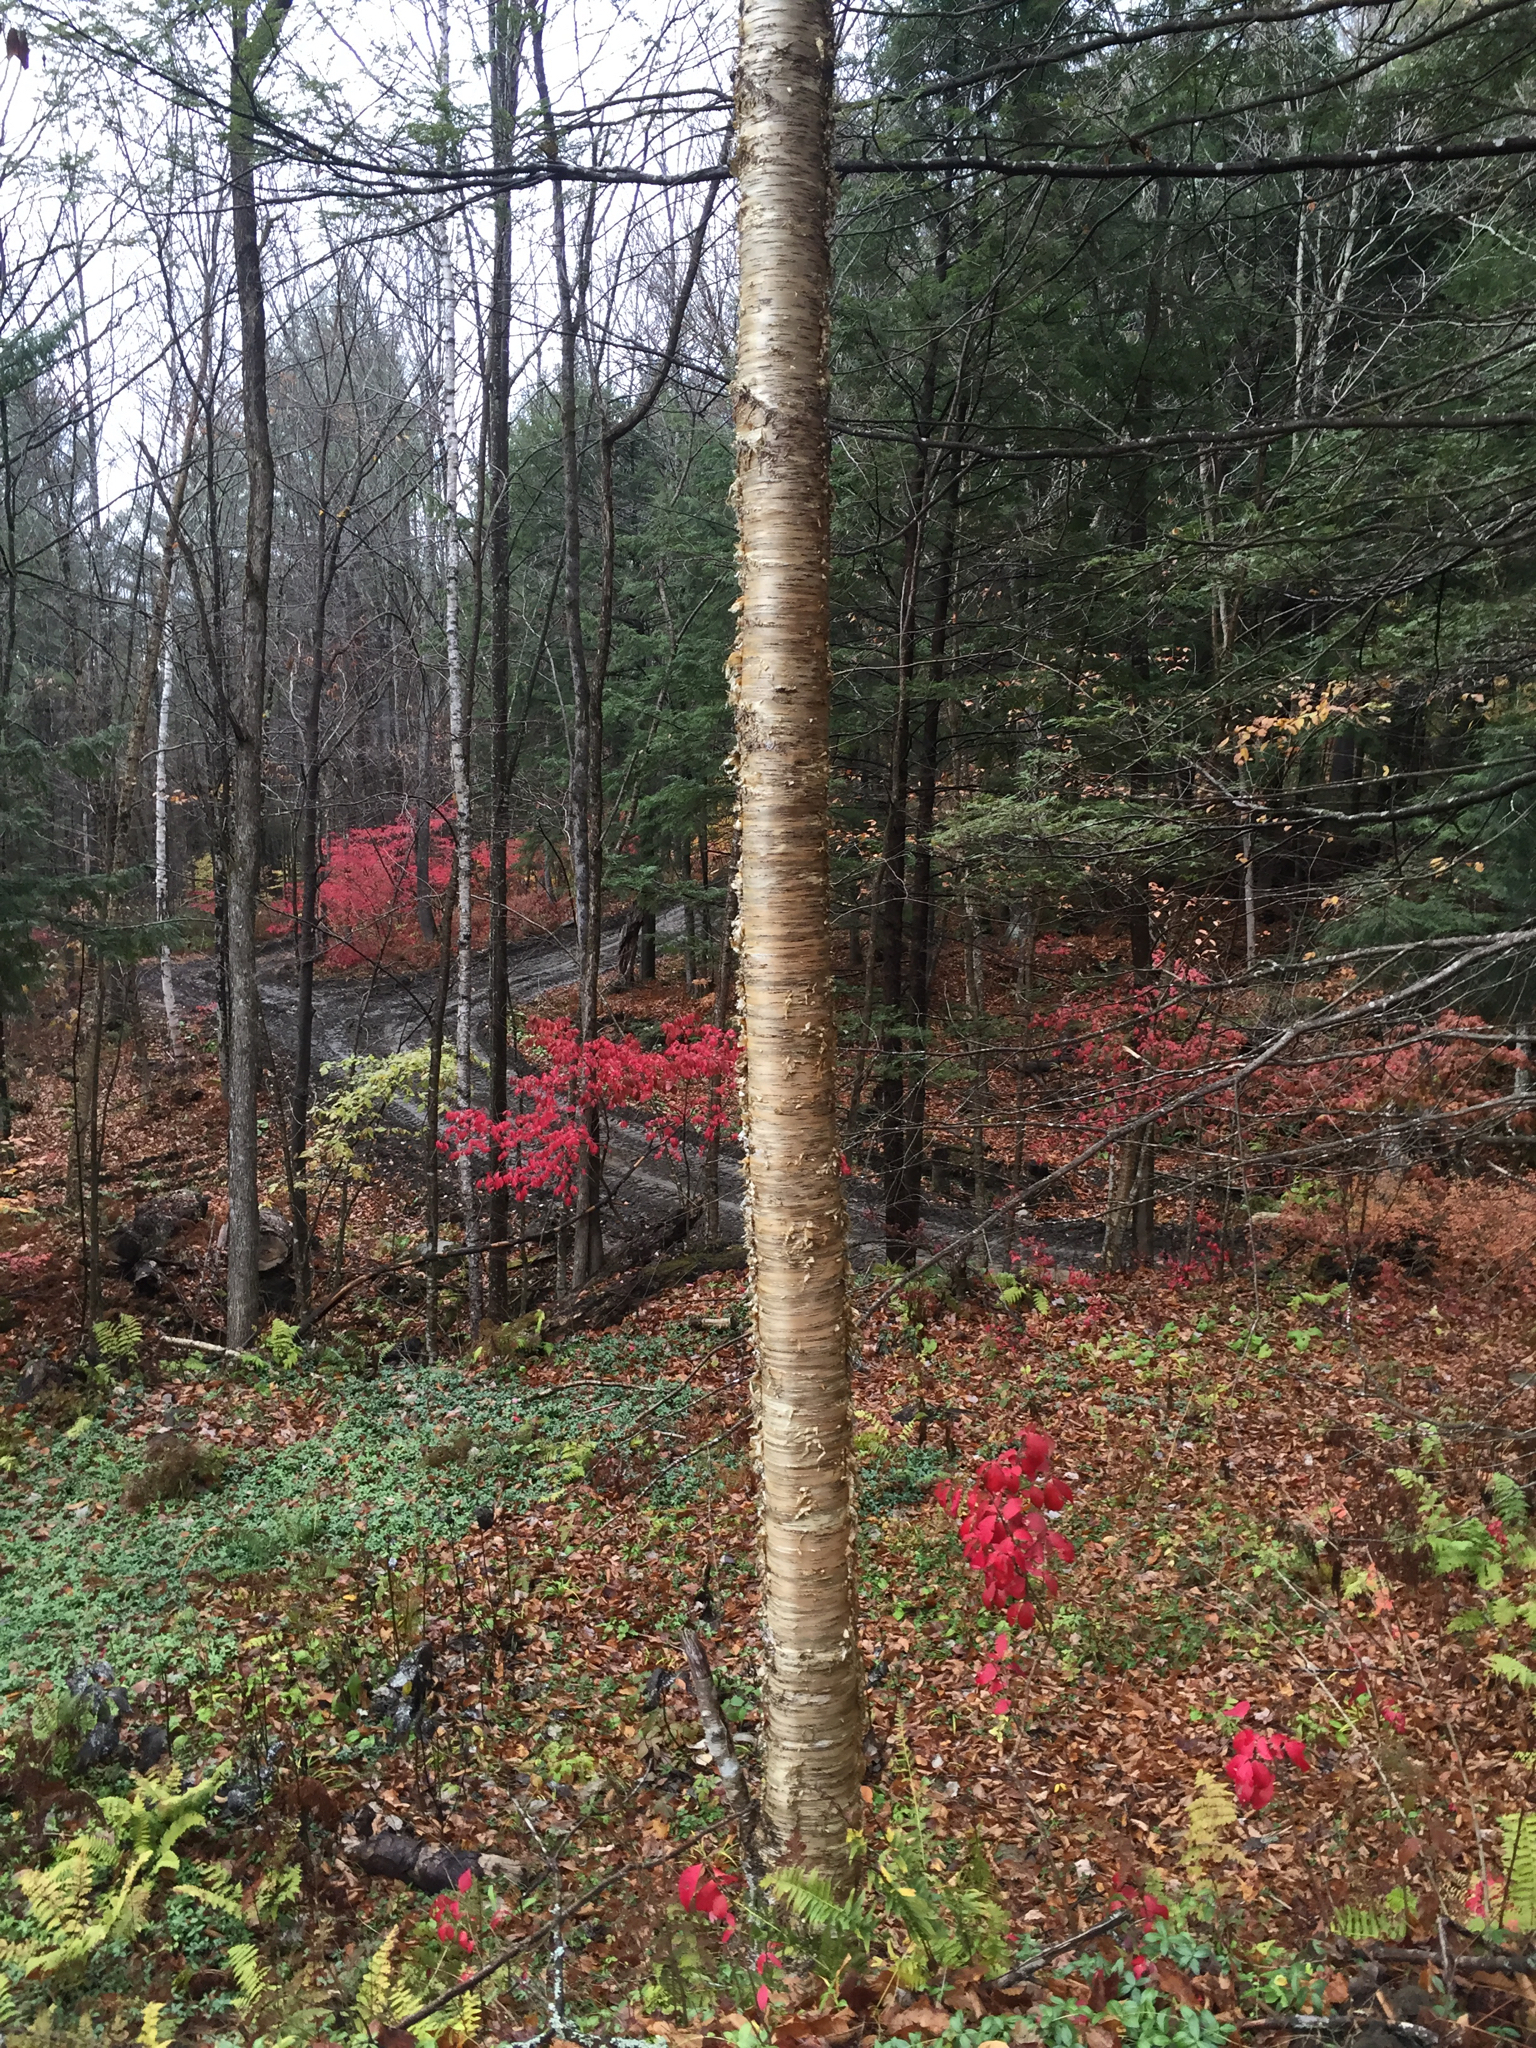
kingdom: Plantae
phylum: Tracheophyta
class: Magnoliopsida
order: Fagales
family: Betulaceae
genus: Betula
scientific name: Betula alleghaniensis
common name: Yellow birch
